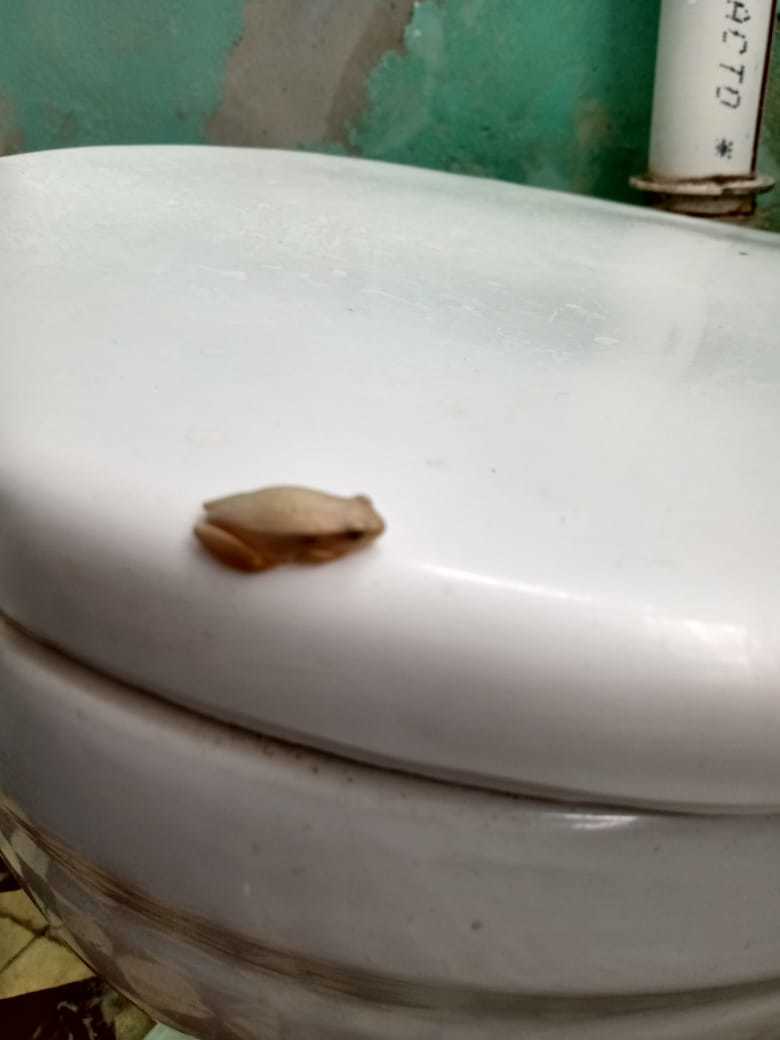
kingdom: Animalia
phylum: Chordata
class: Amphibia
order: Anura
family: Hylidae
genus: Dendropsophus
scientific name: Dendropsophus
